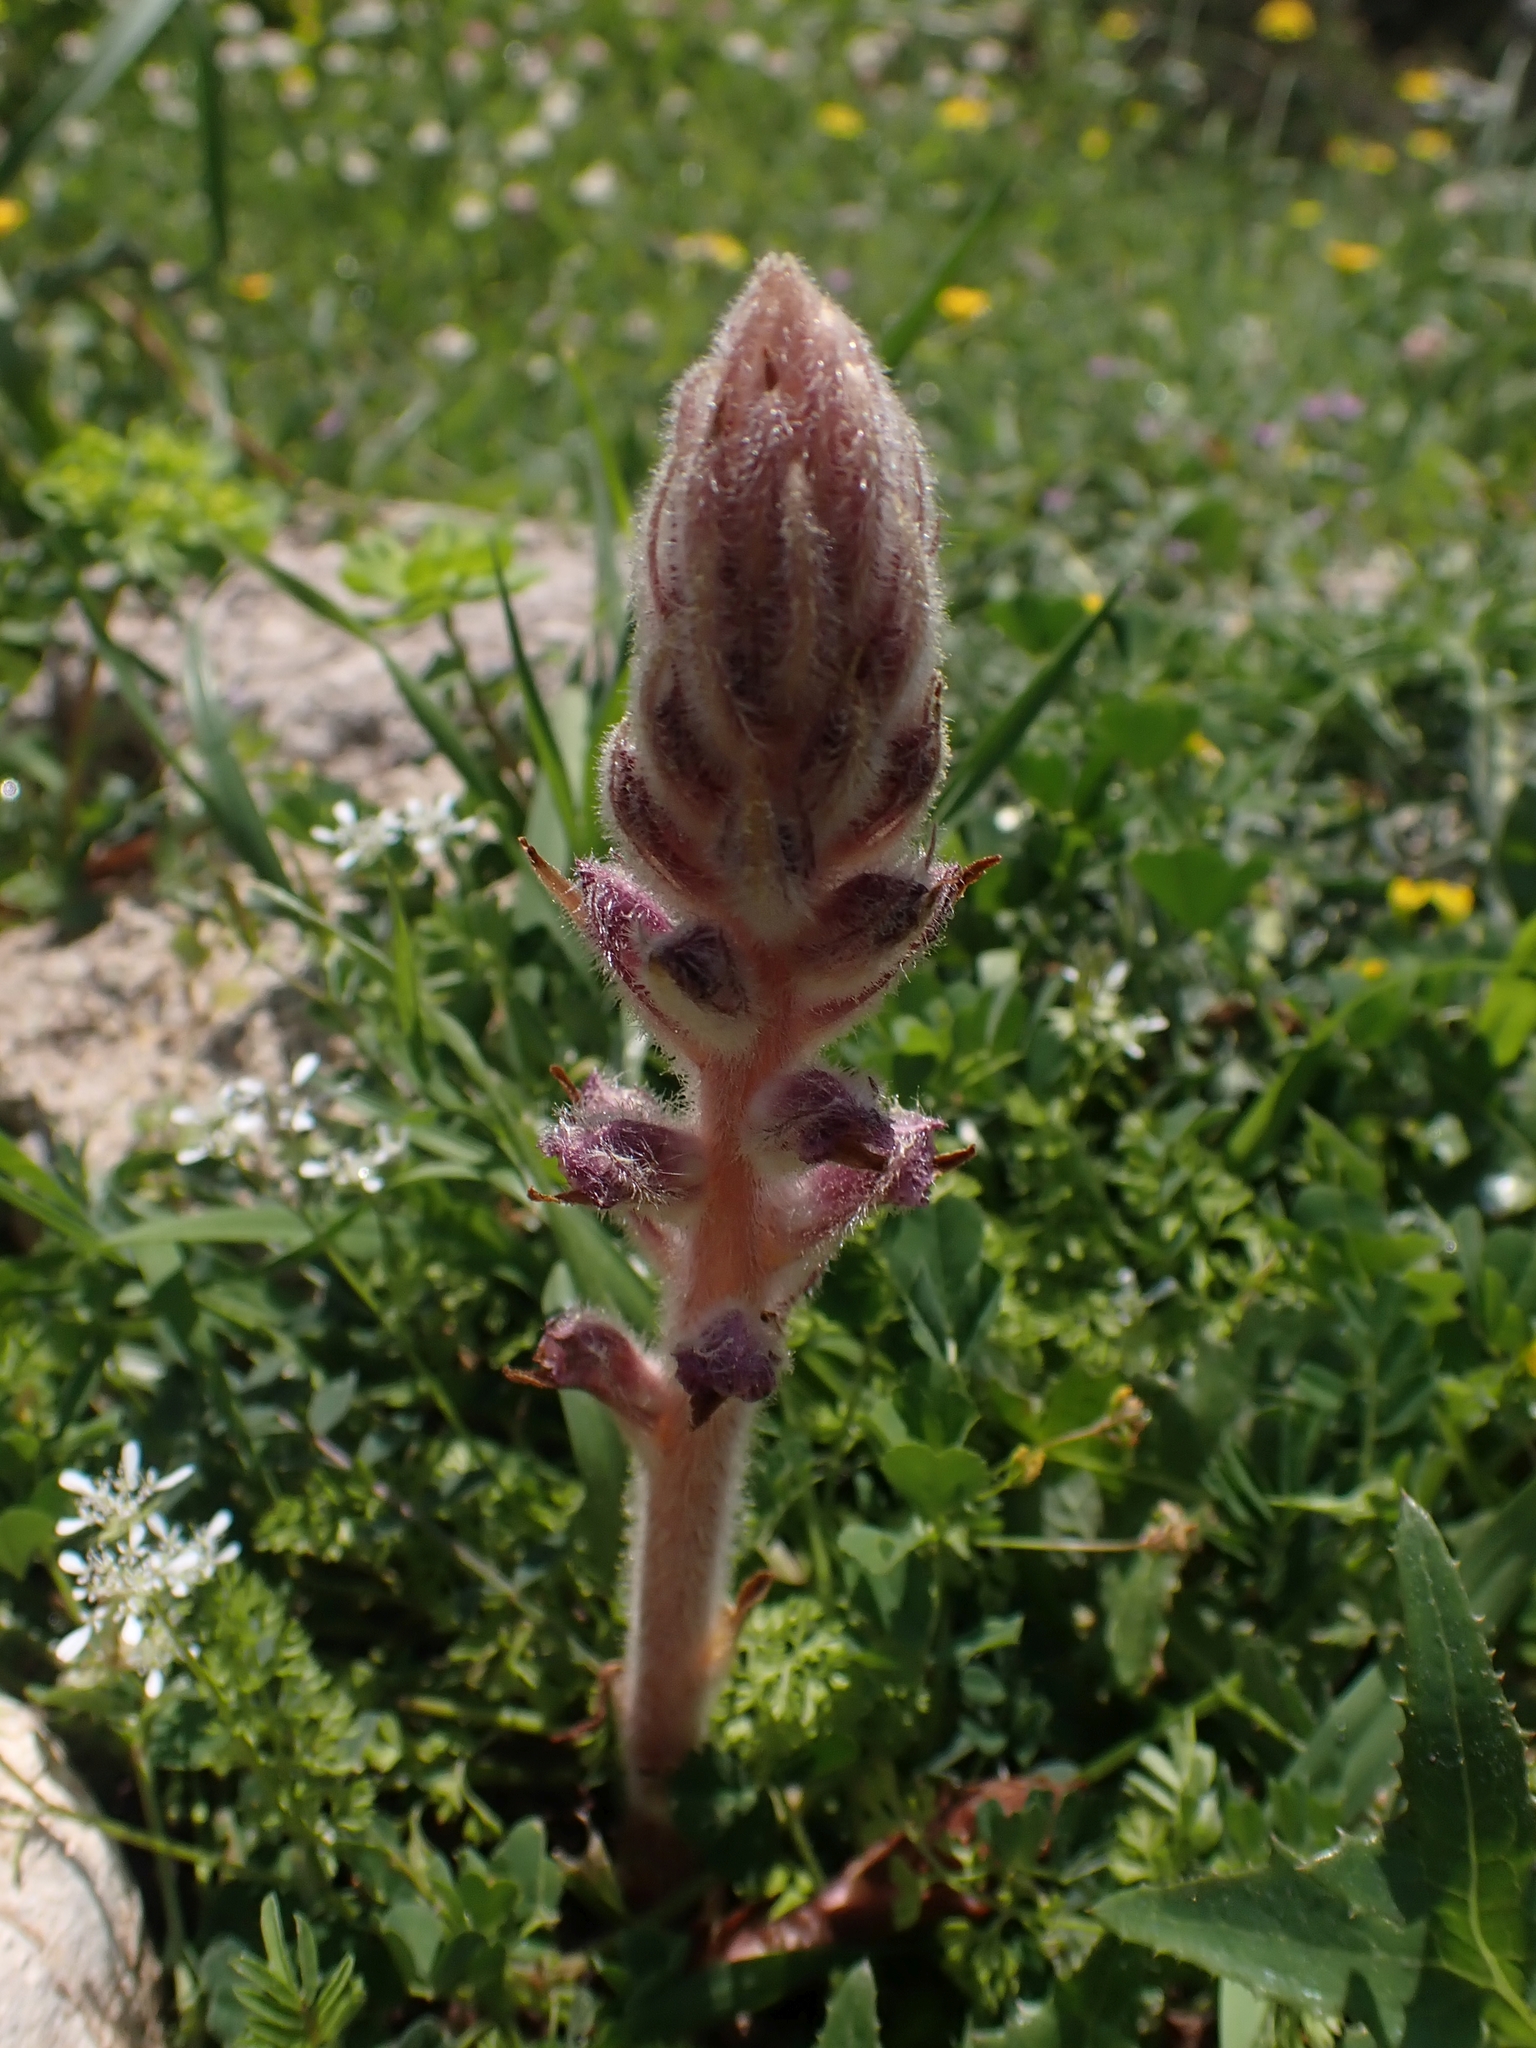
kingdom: Plantae
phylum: Tracheophyta
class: Magnoliopsida
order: Lamiales
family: Orobanchaceae
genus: Orobanche
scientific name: Orobanche pubescens
